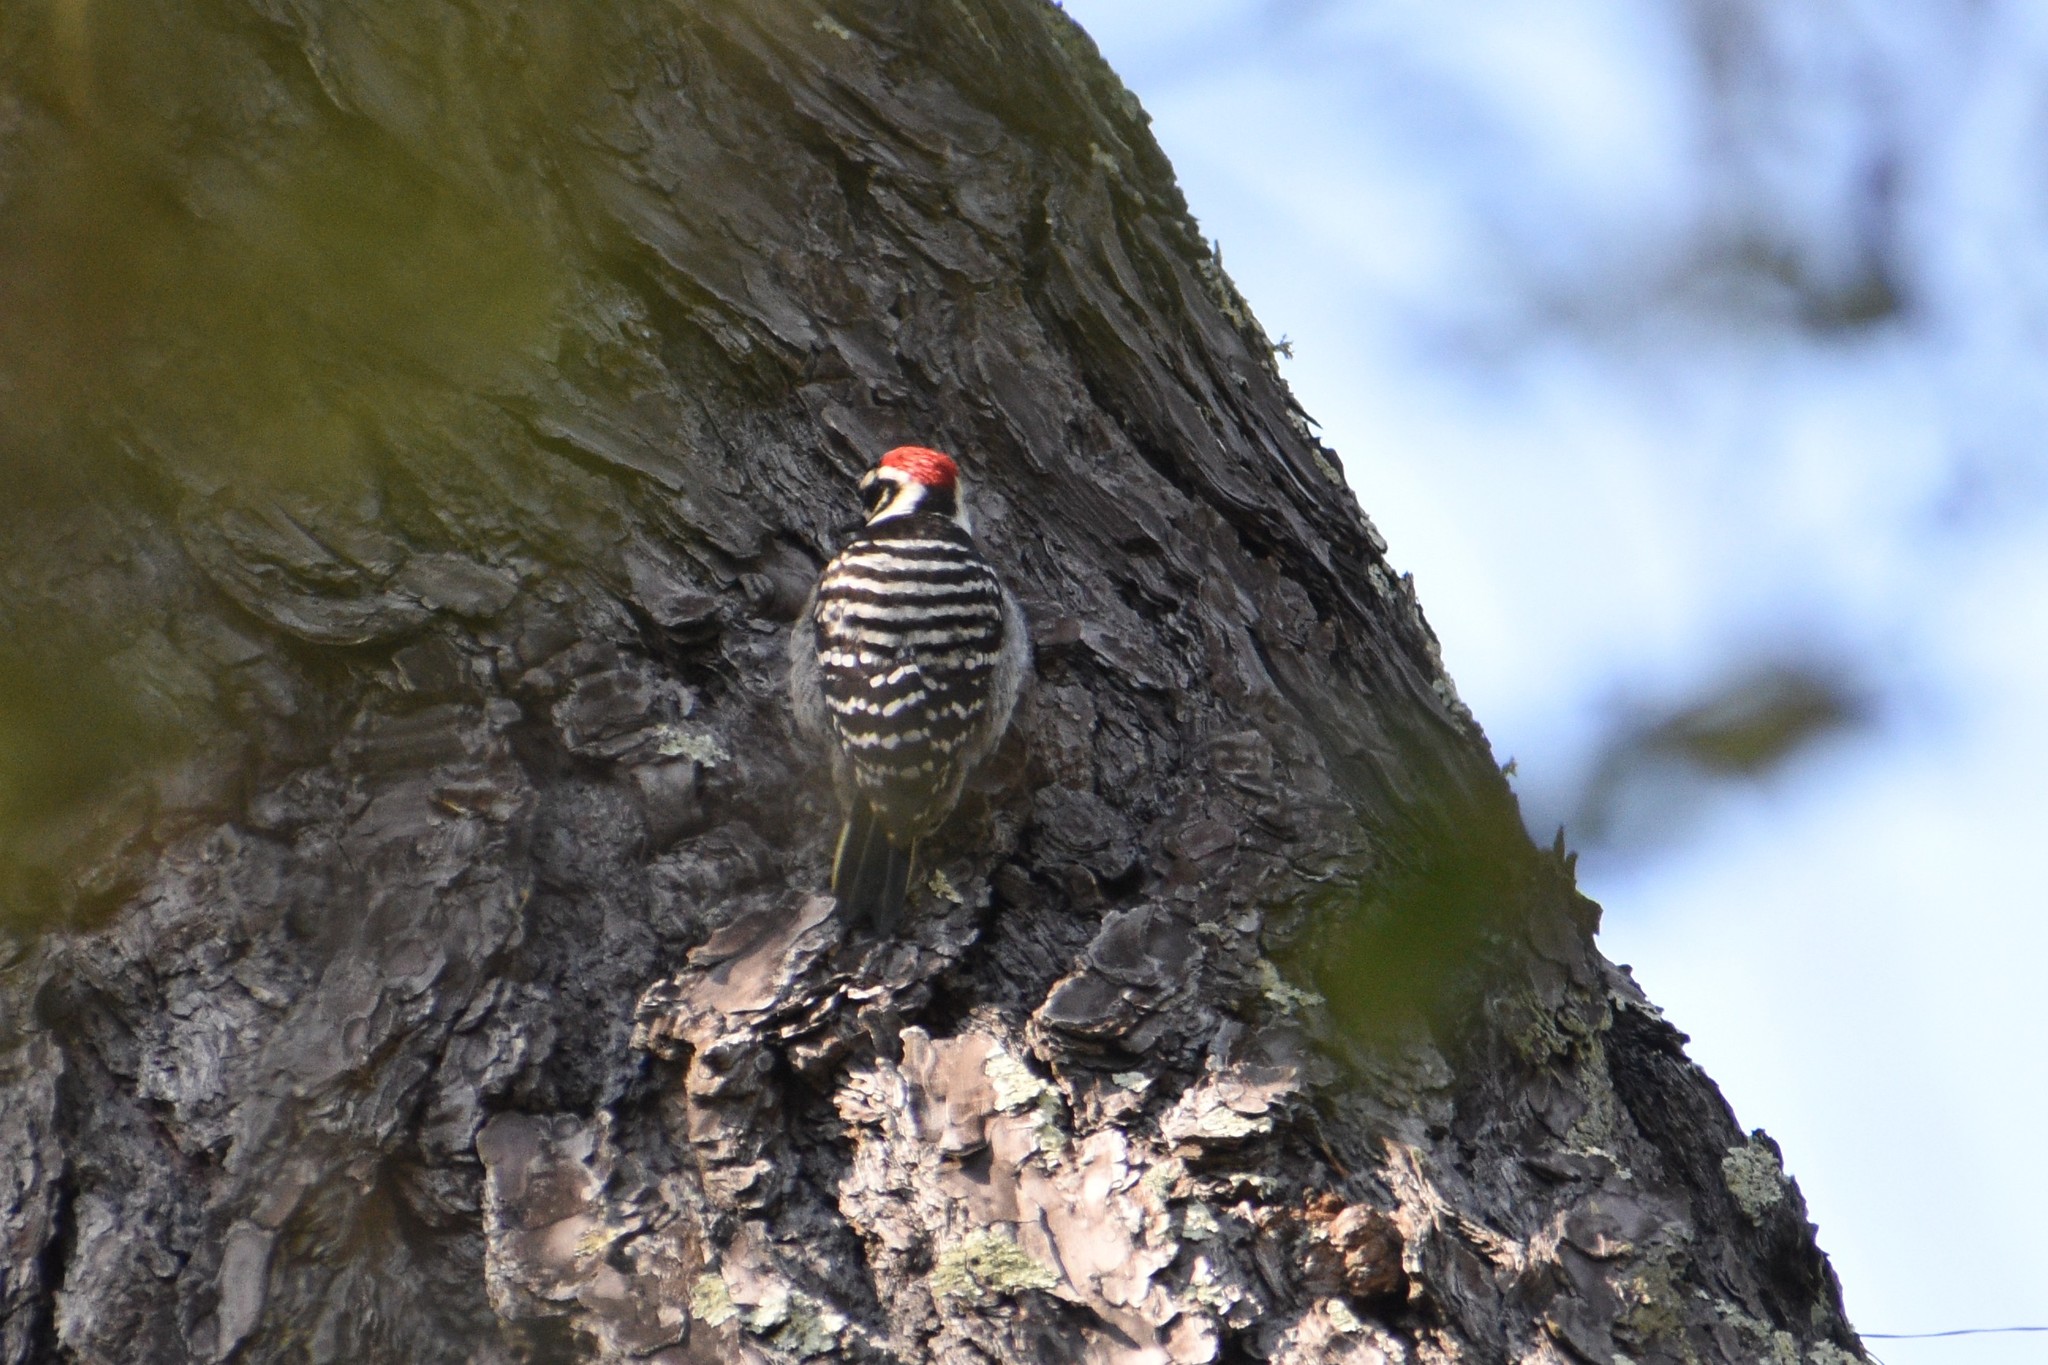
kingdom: Animalia
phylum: Chordata
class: Aves
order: Piciformes
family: Picidae
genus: Dryobates
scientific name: Dryobates nuttallii
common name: Nuttall's woodpecker
